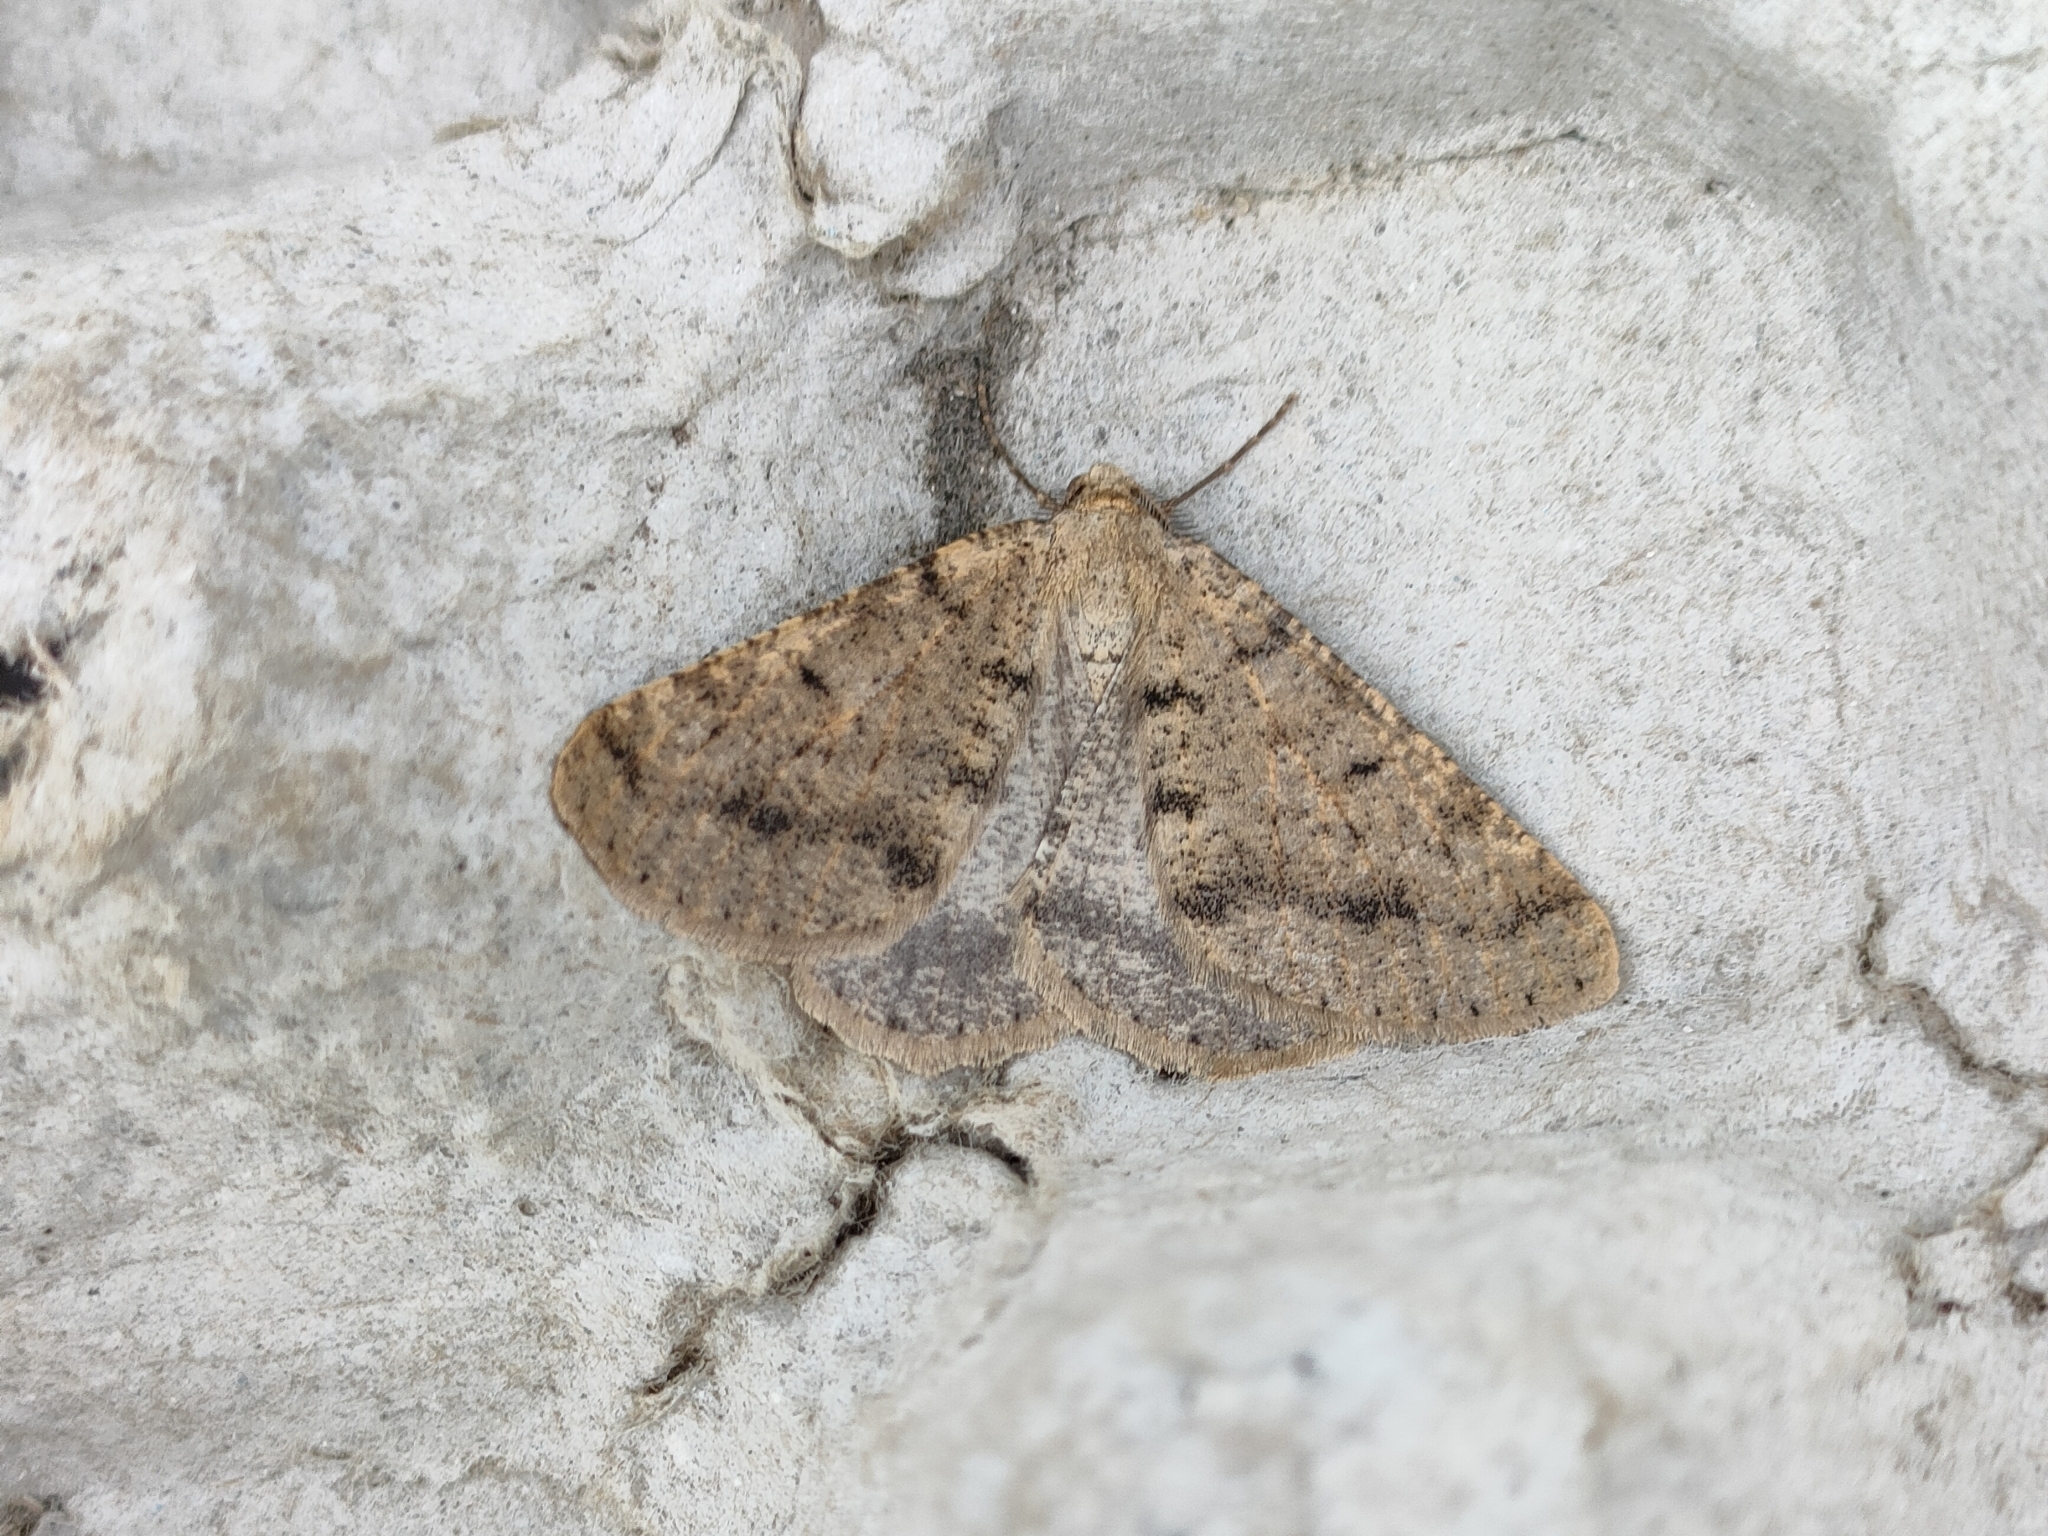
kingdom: Animalia
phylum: Arthropoda
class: Insecta
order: Lepidoptera
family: Geometridae
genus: Isturgia
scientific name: Isturgia miniosaria
